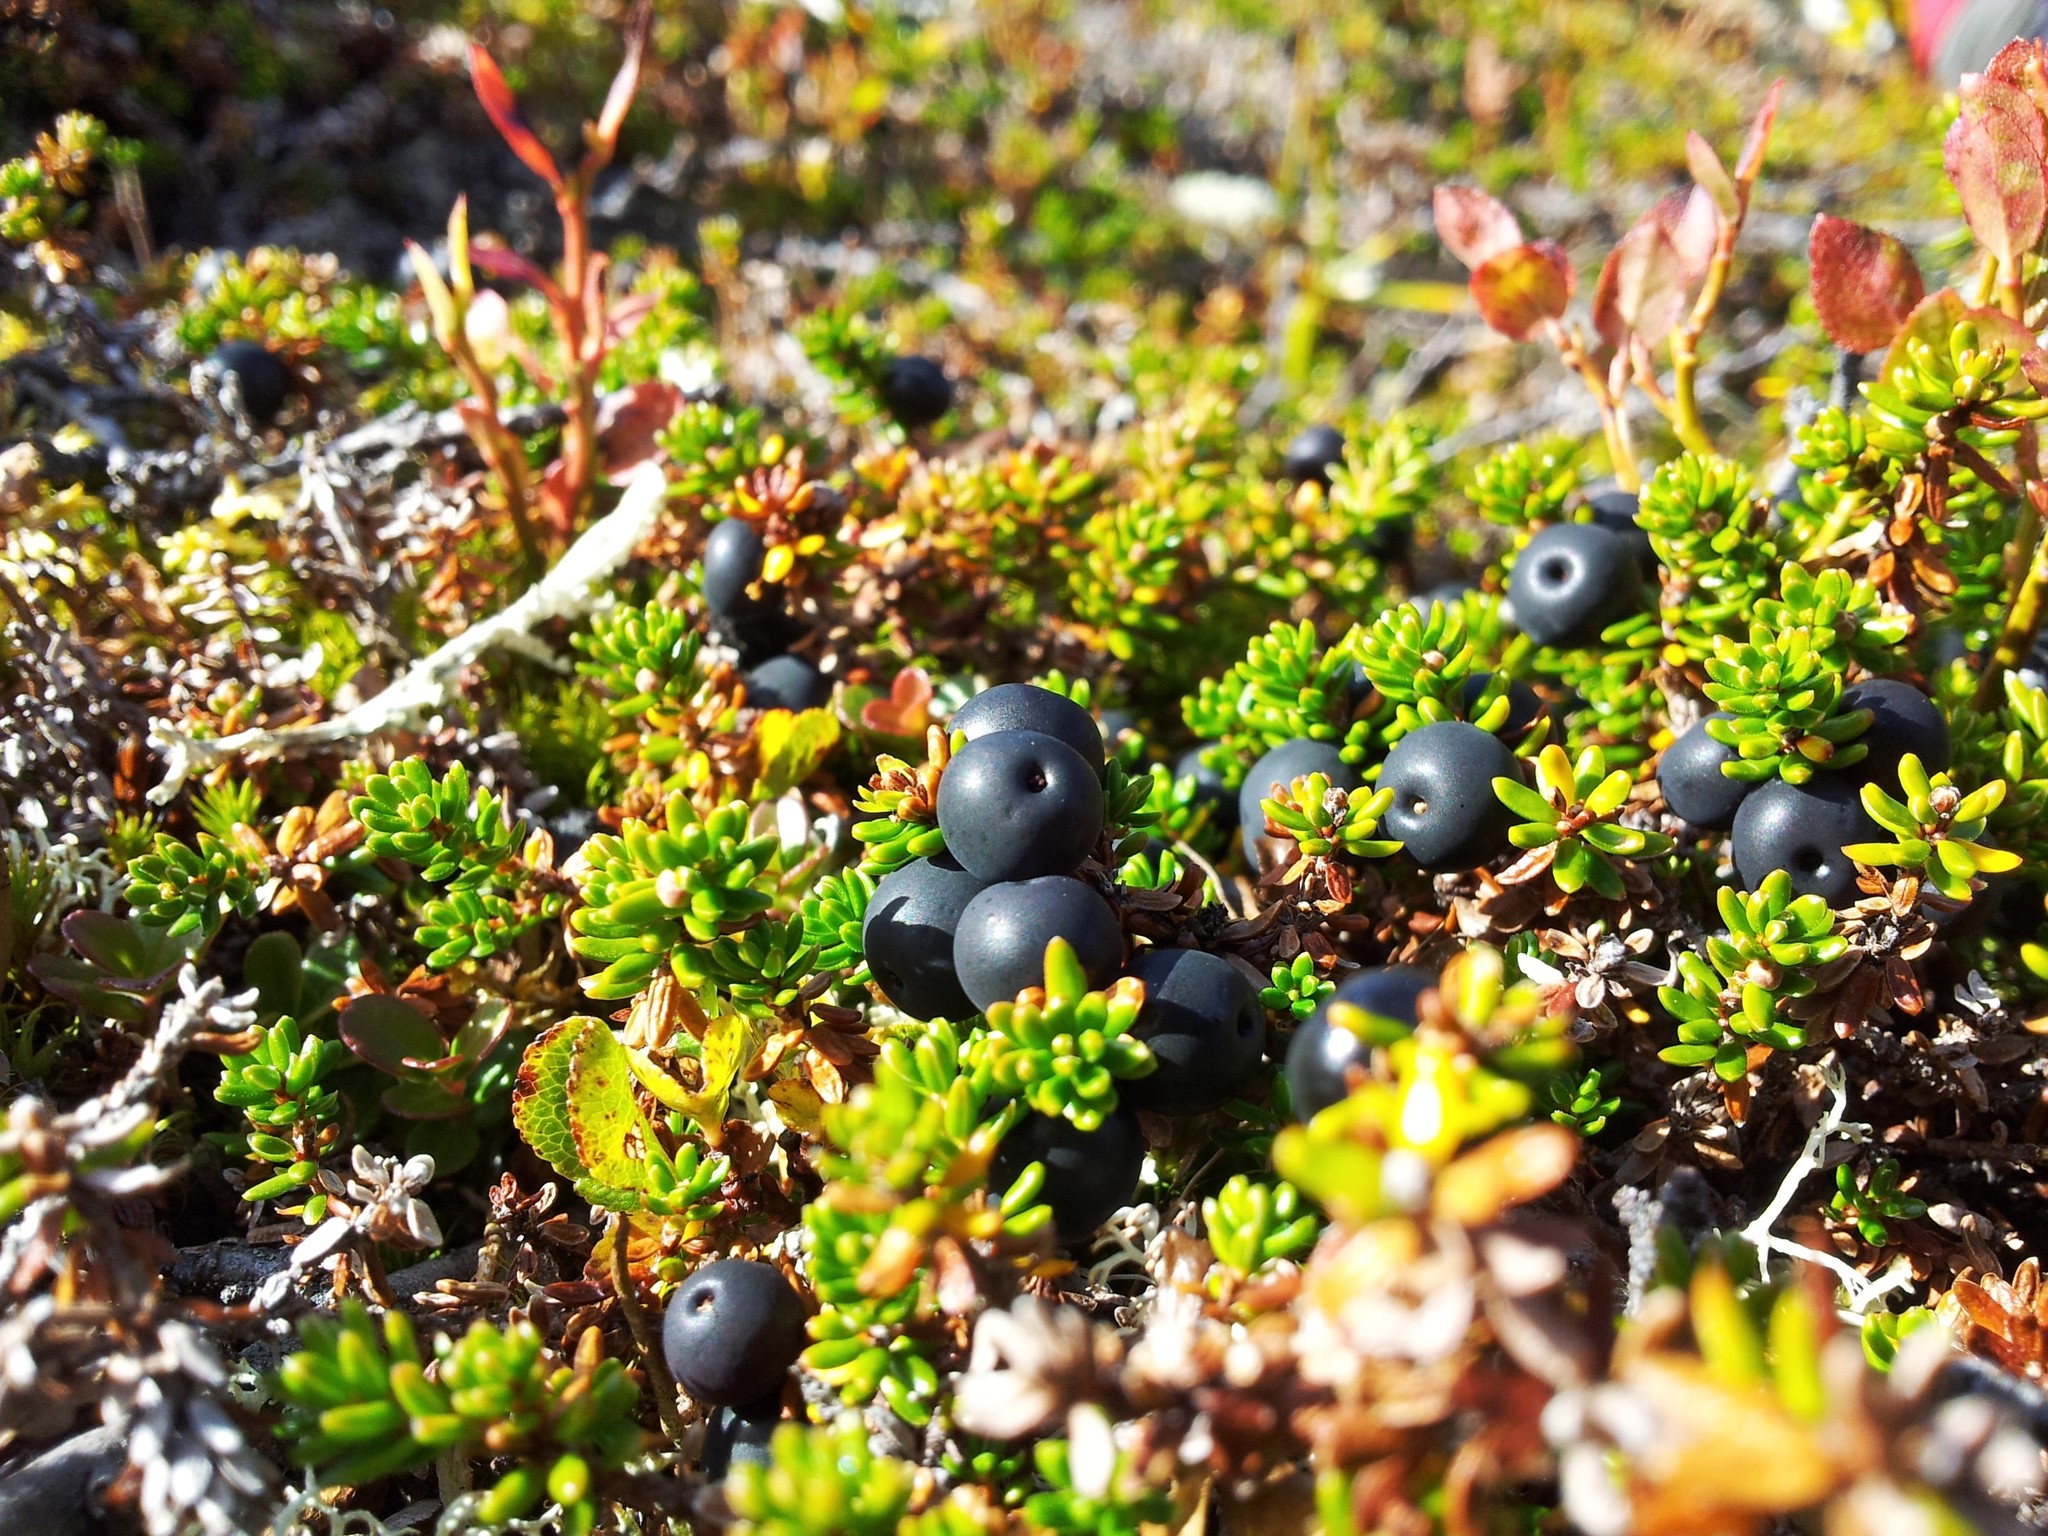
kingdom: Plantae
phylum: Tracheophyta
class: Magnoliopsida
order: Ericales
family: Ericaceae
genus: Empetrum
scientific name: Empetrum nigrum
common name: Black crowberry
